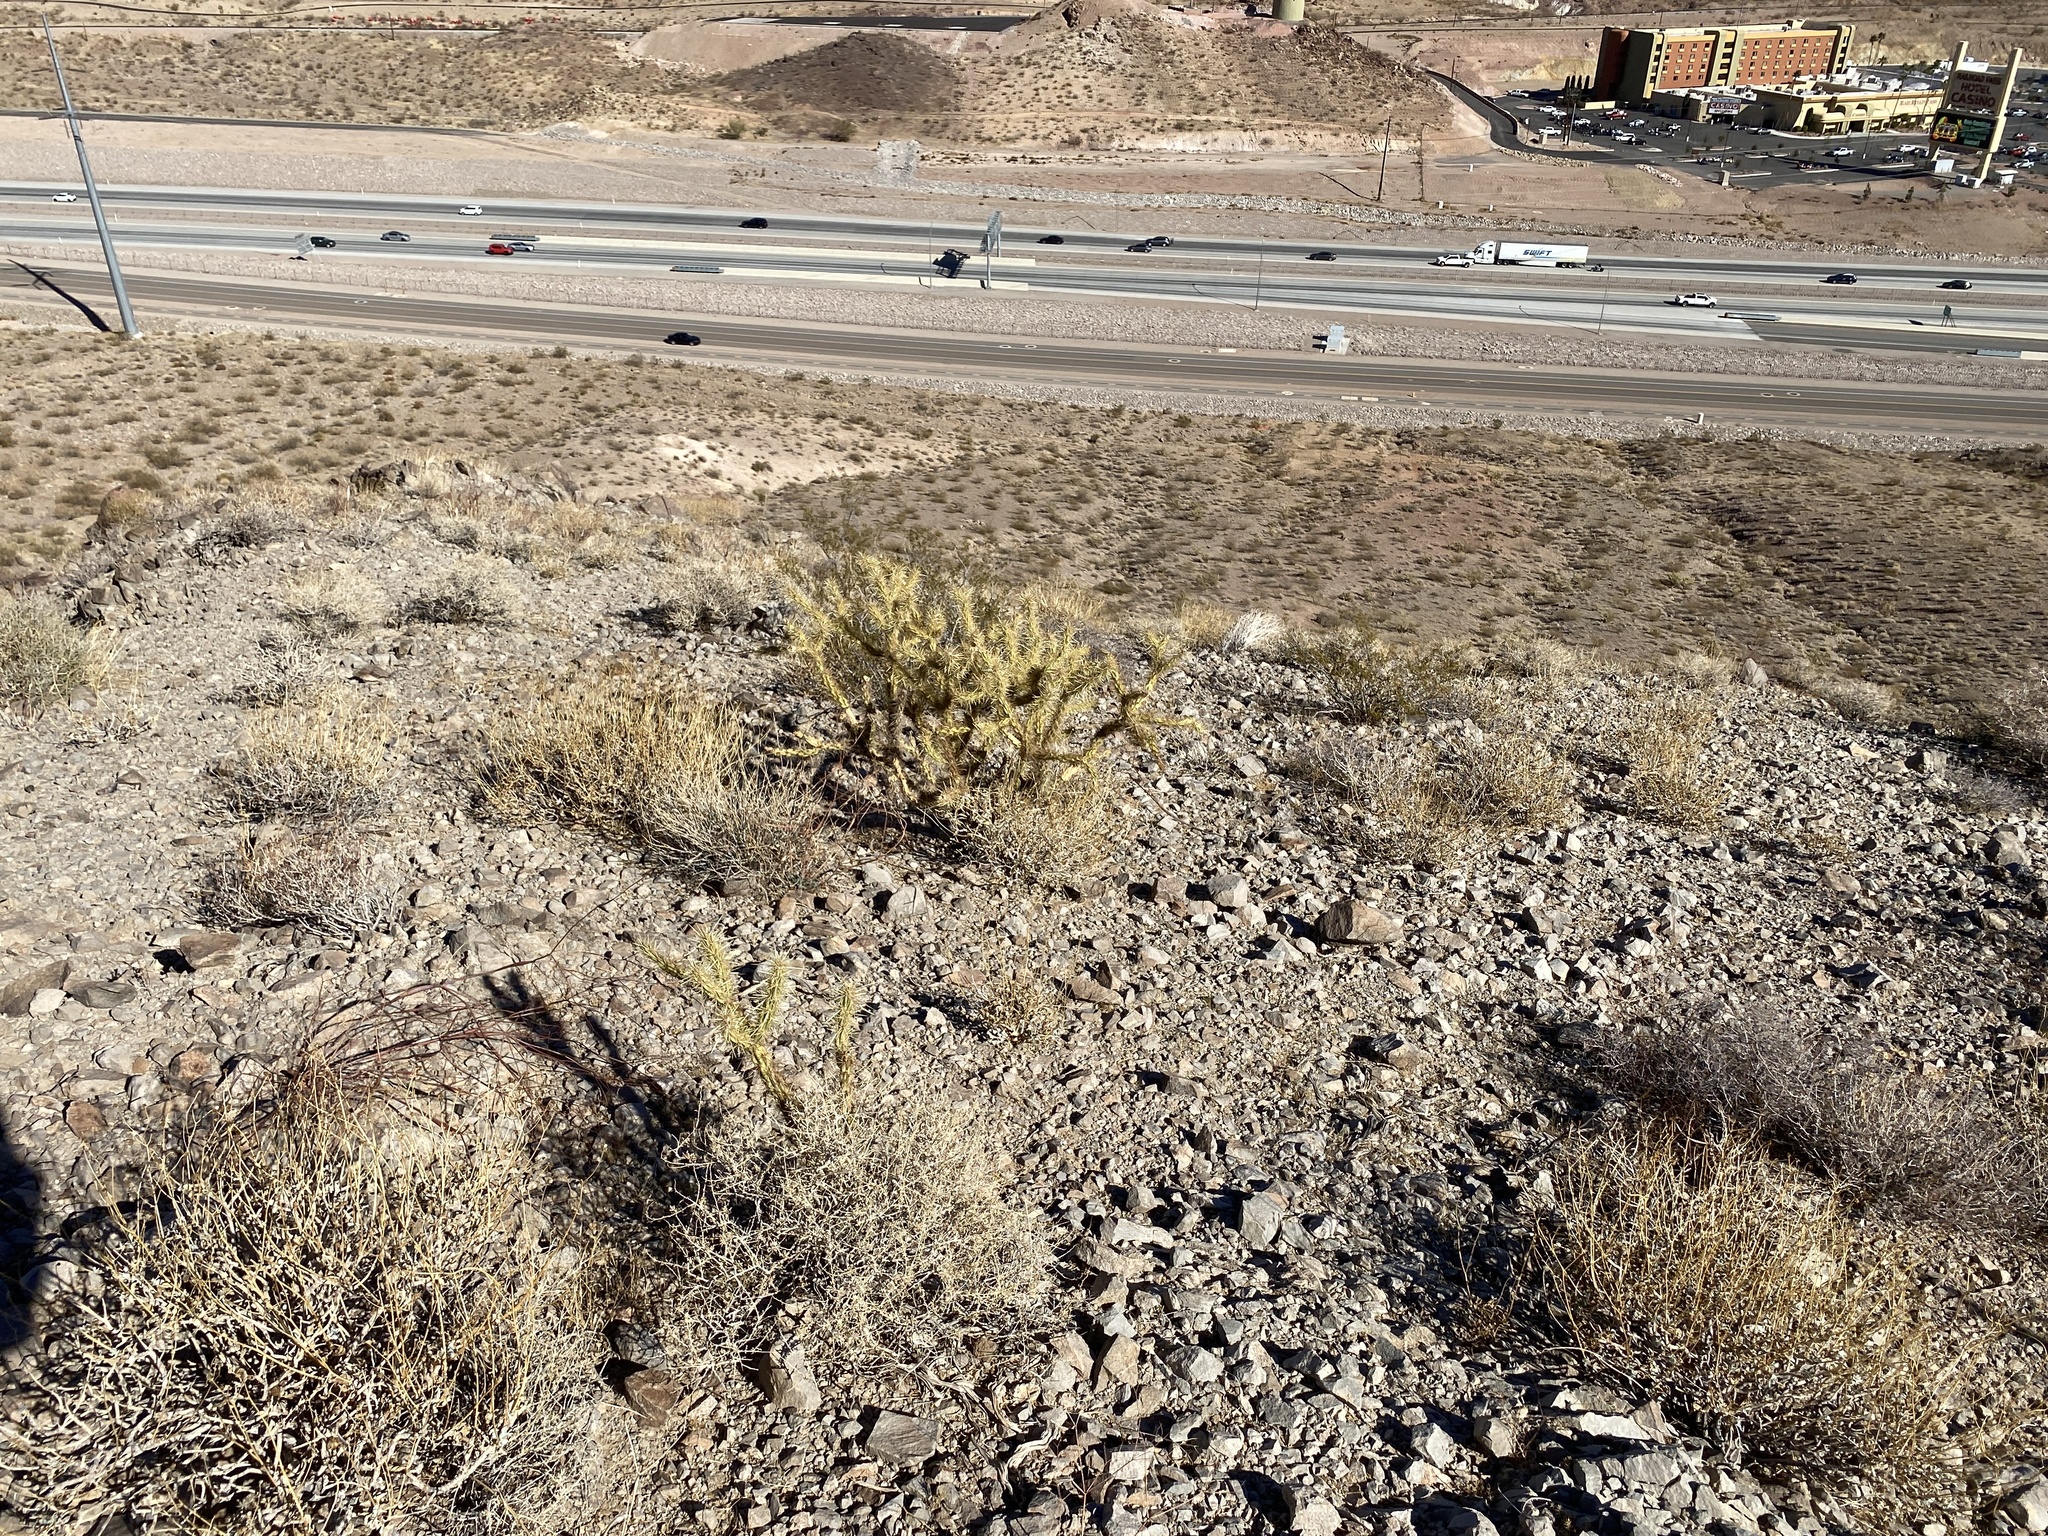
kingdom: Plantae
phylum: Tracheophyta
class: Magnoliopsida
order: Caryophyllales
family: Cactaceae
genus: Cylindropuntia
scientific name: Cylindropuntia acanthocarpa
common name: Buckhorn cholla
